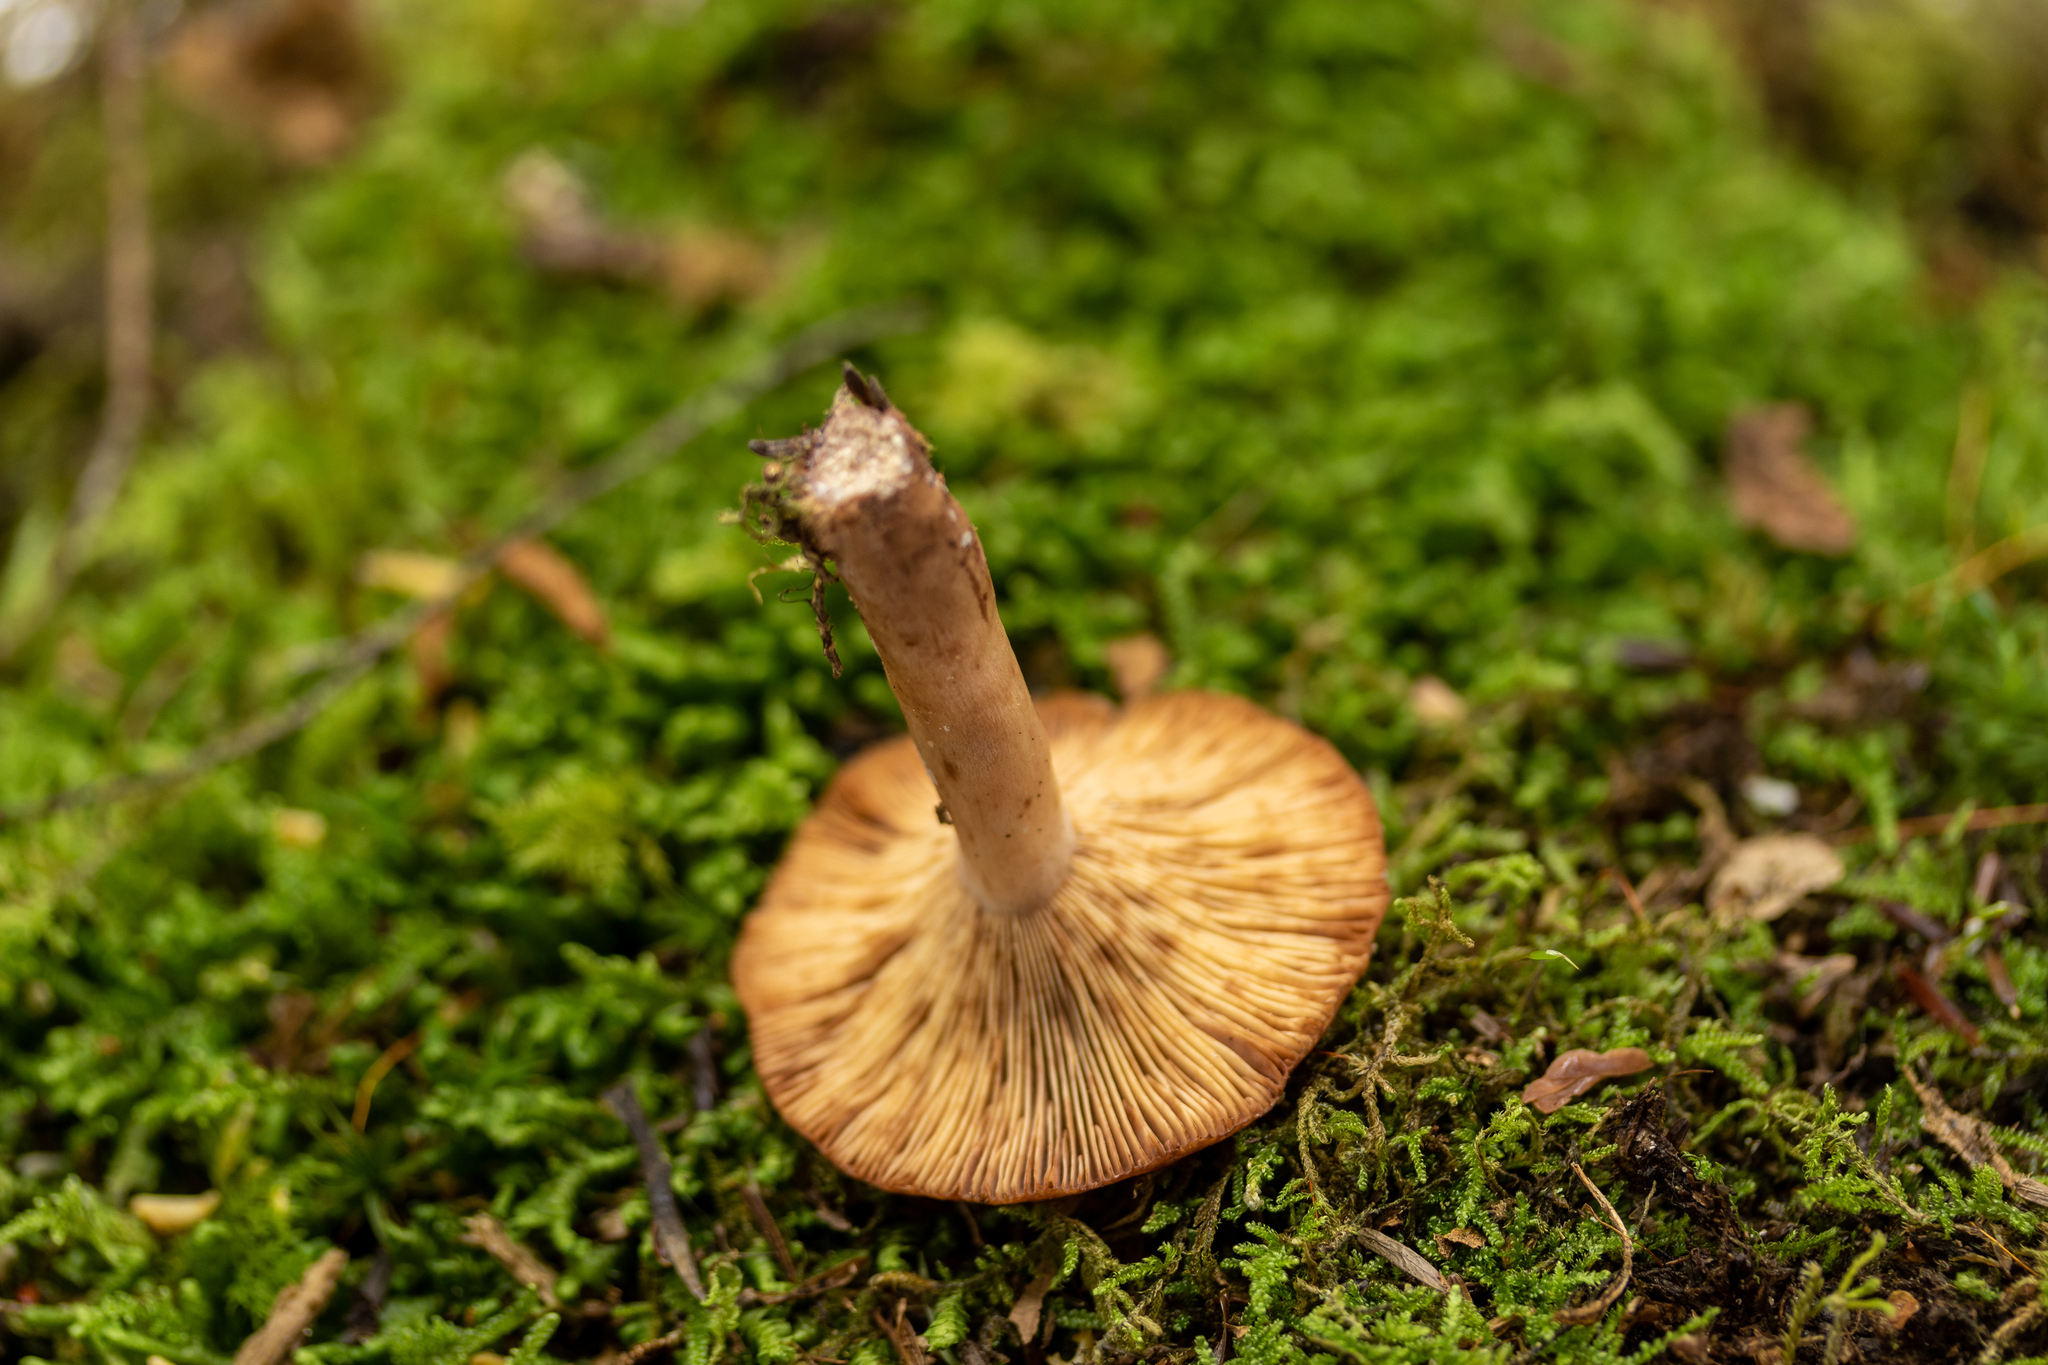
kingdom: Fungi
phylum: Basidiomycota
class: Agaricomycetes
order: Russulales
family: Russulaceae
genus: Lactarius
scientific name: Lactarius vinaceorufescens
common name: Yellow-latex milkcap
